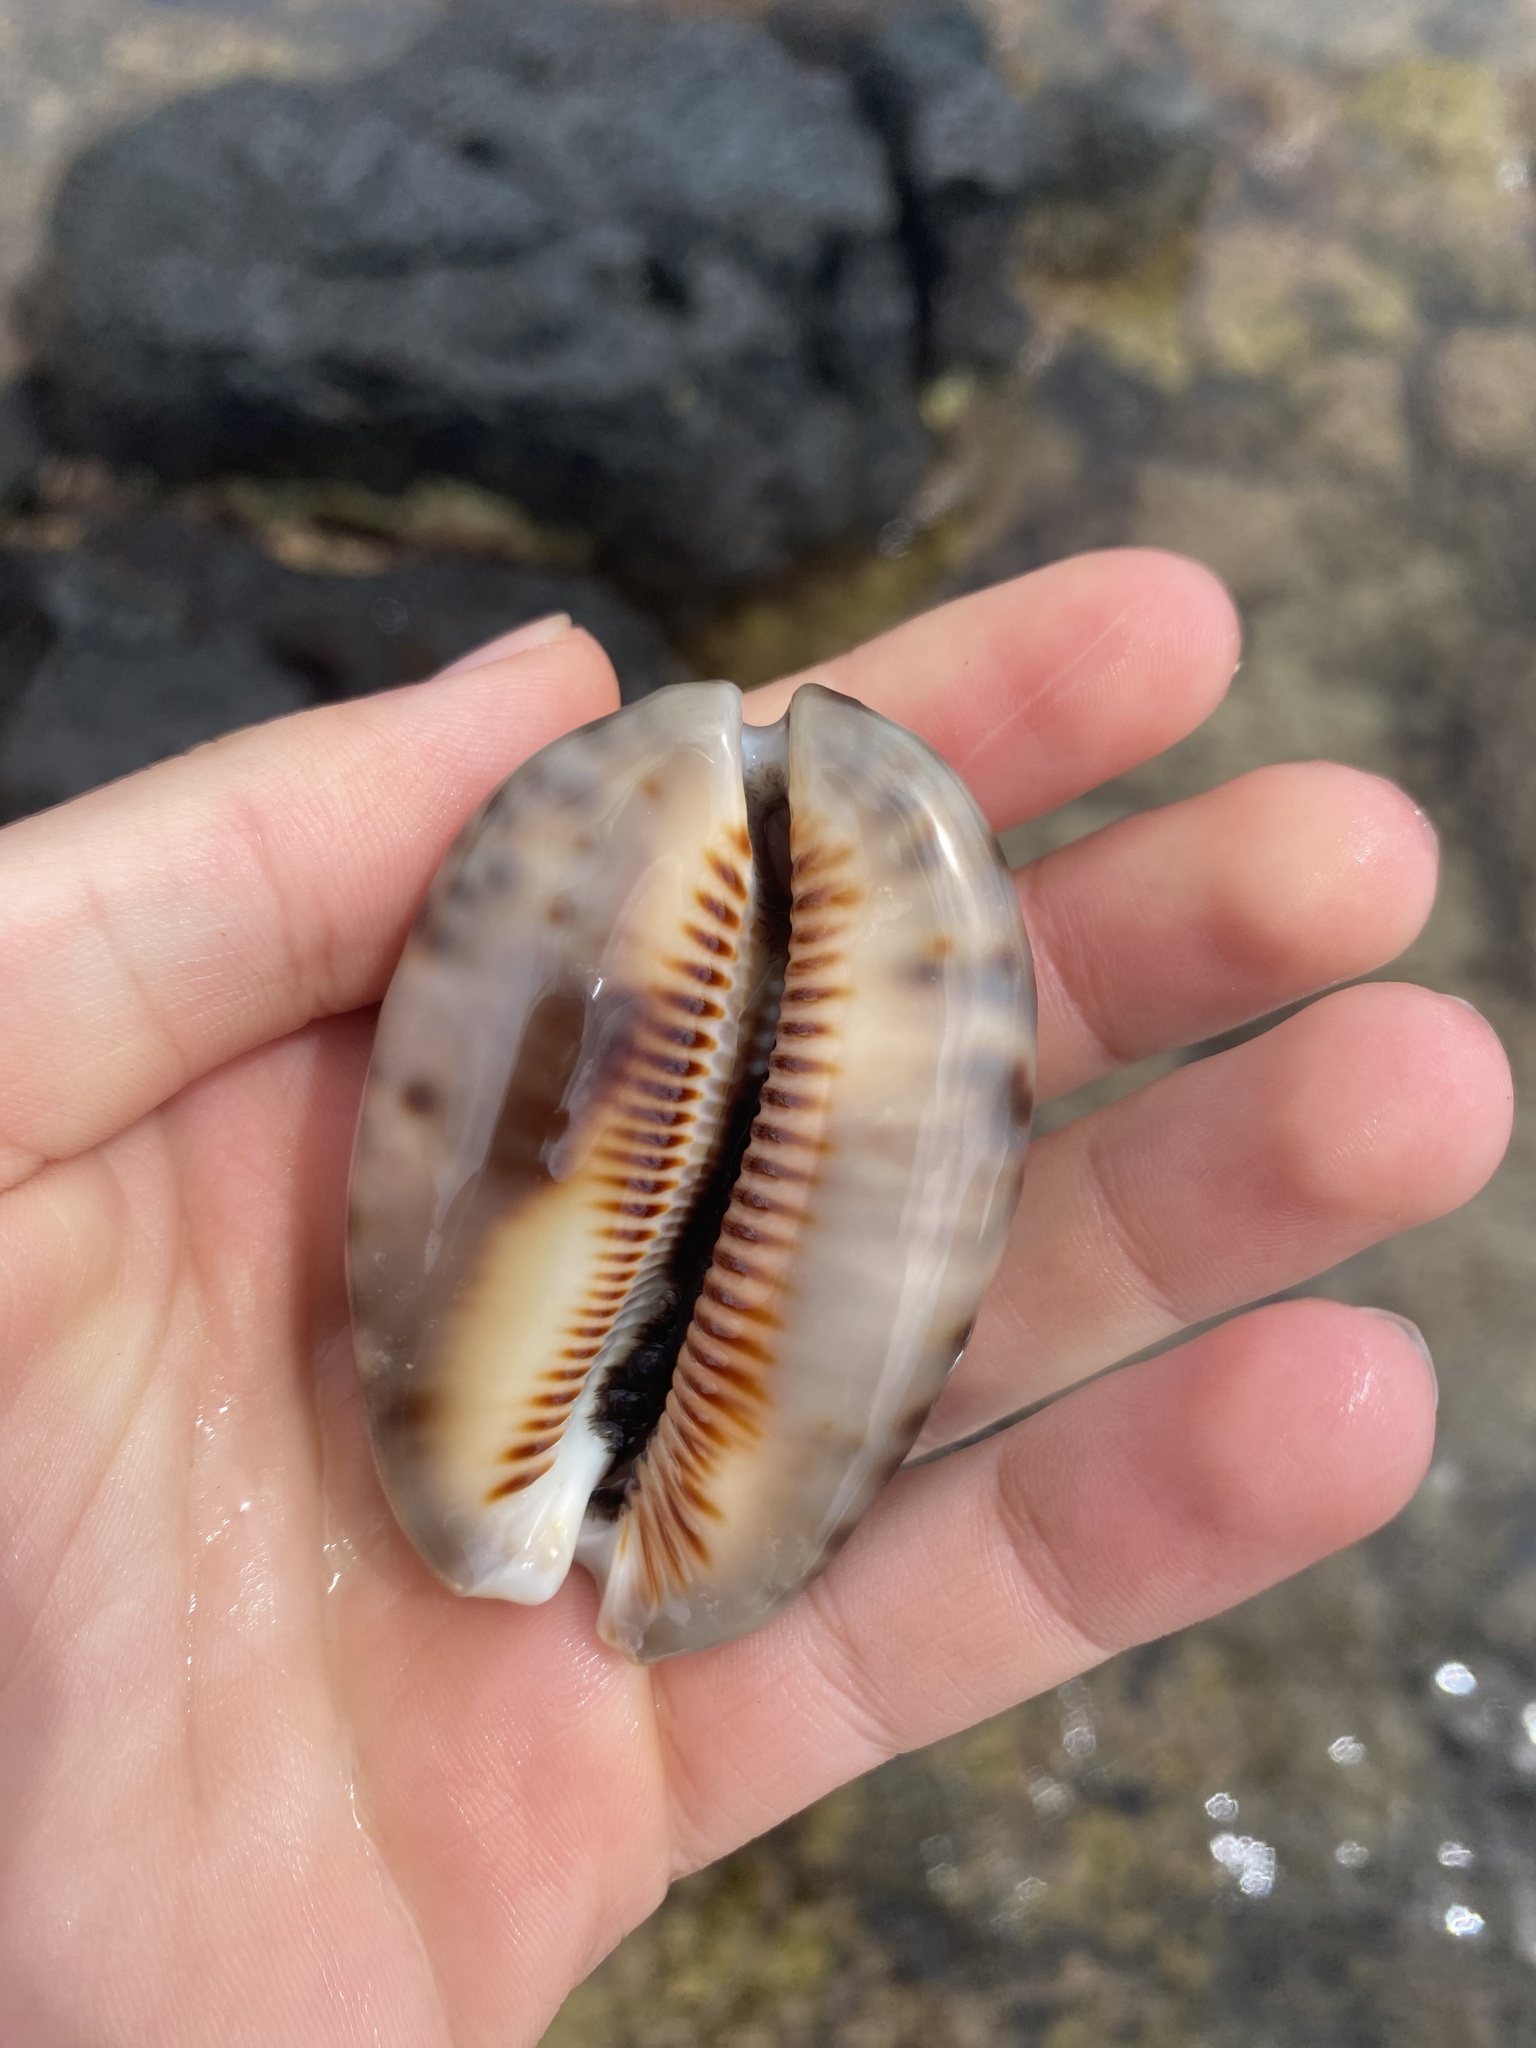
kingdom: Animalia
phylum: Mollusca
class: Gastropoda
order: Littorinimorpha
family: Cypraeidae
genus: Mauritia
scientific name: Mauritia maculifera
